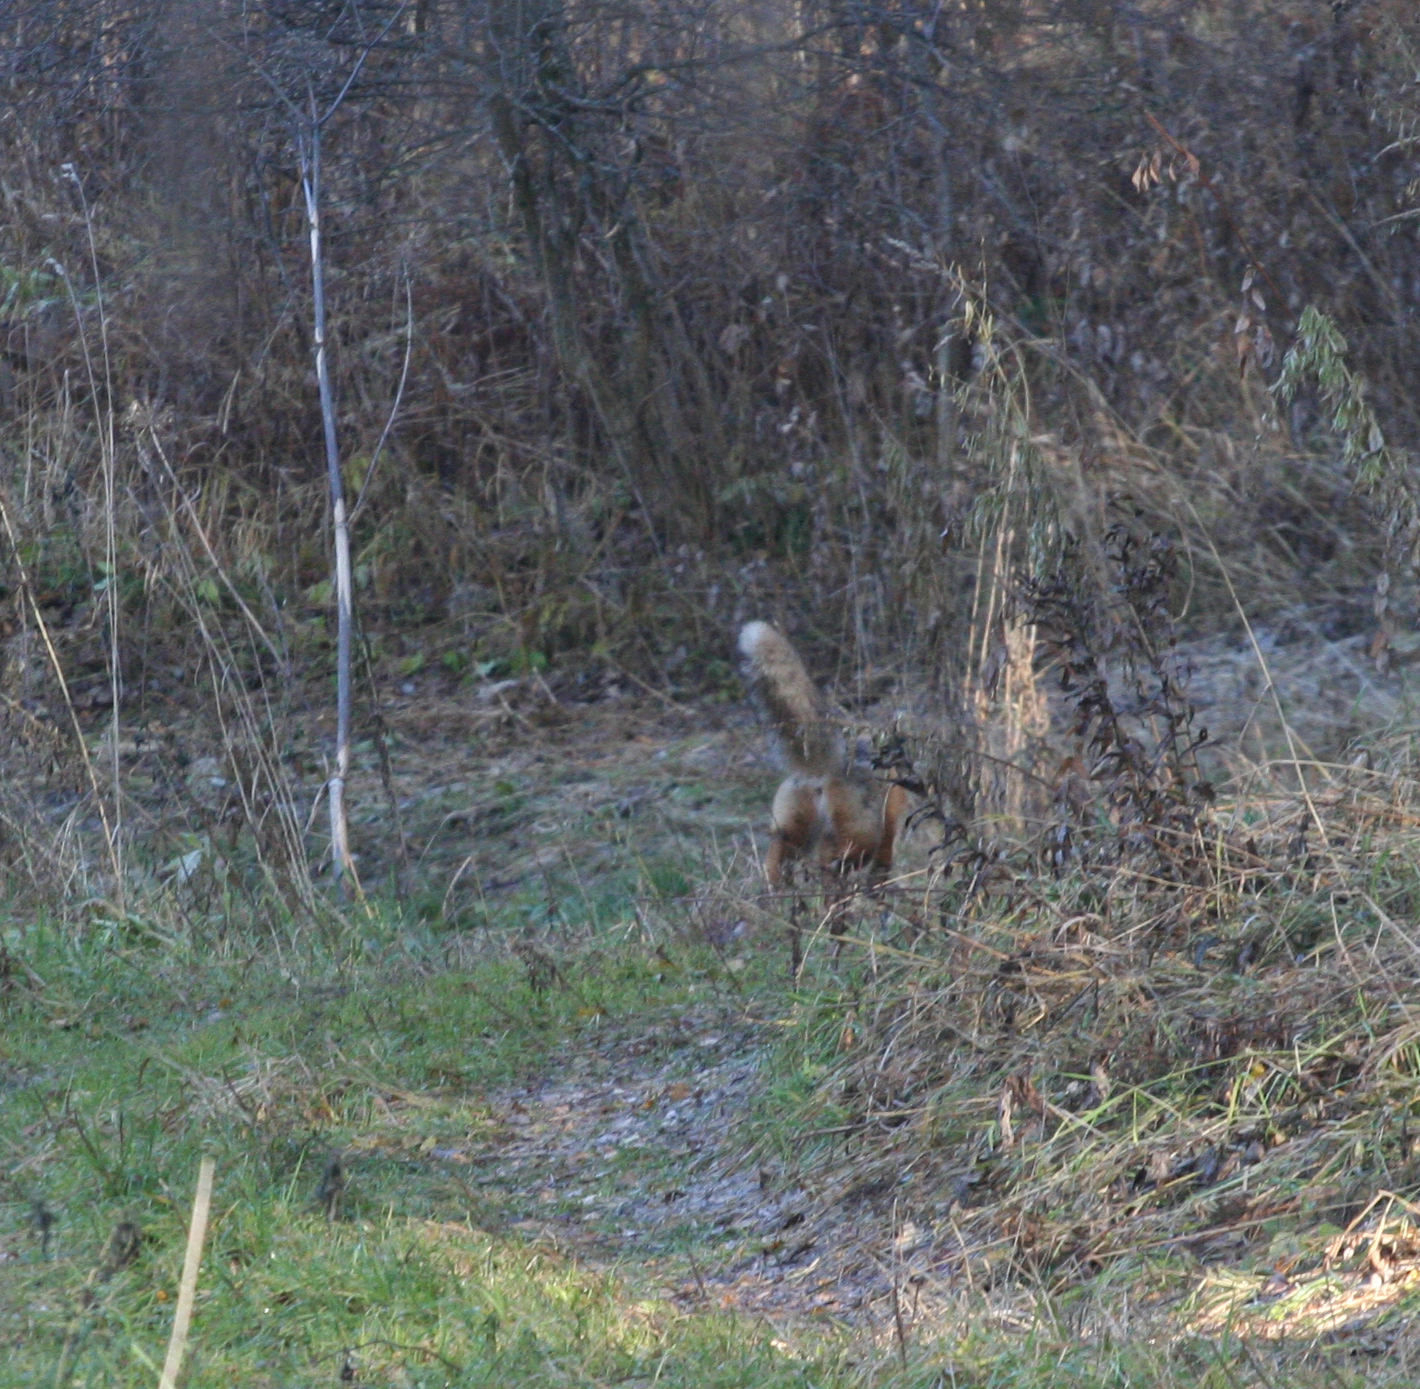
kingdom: Animalia
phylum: Chordata
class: Mammalia
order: Carnivora
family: Canidae
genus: Vulpes
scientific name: Vulpes vulpes
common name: Red fox
